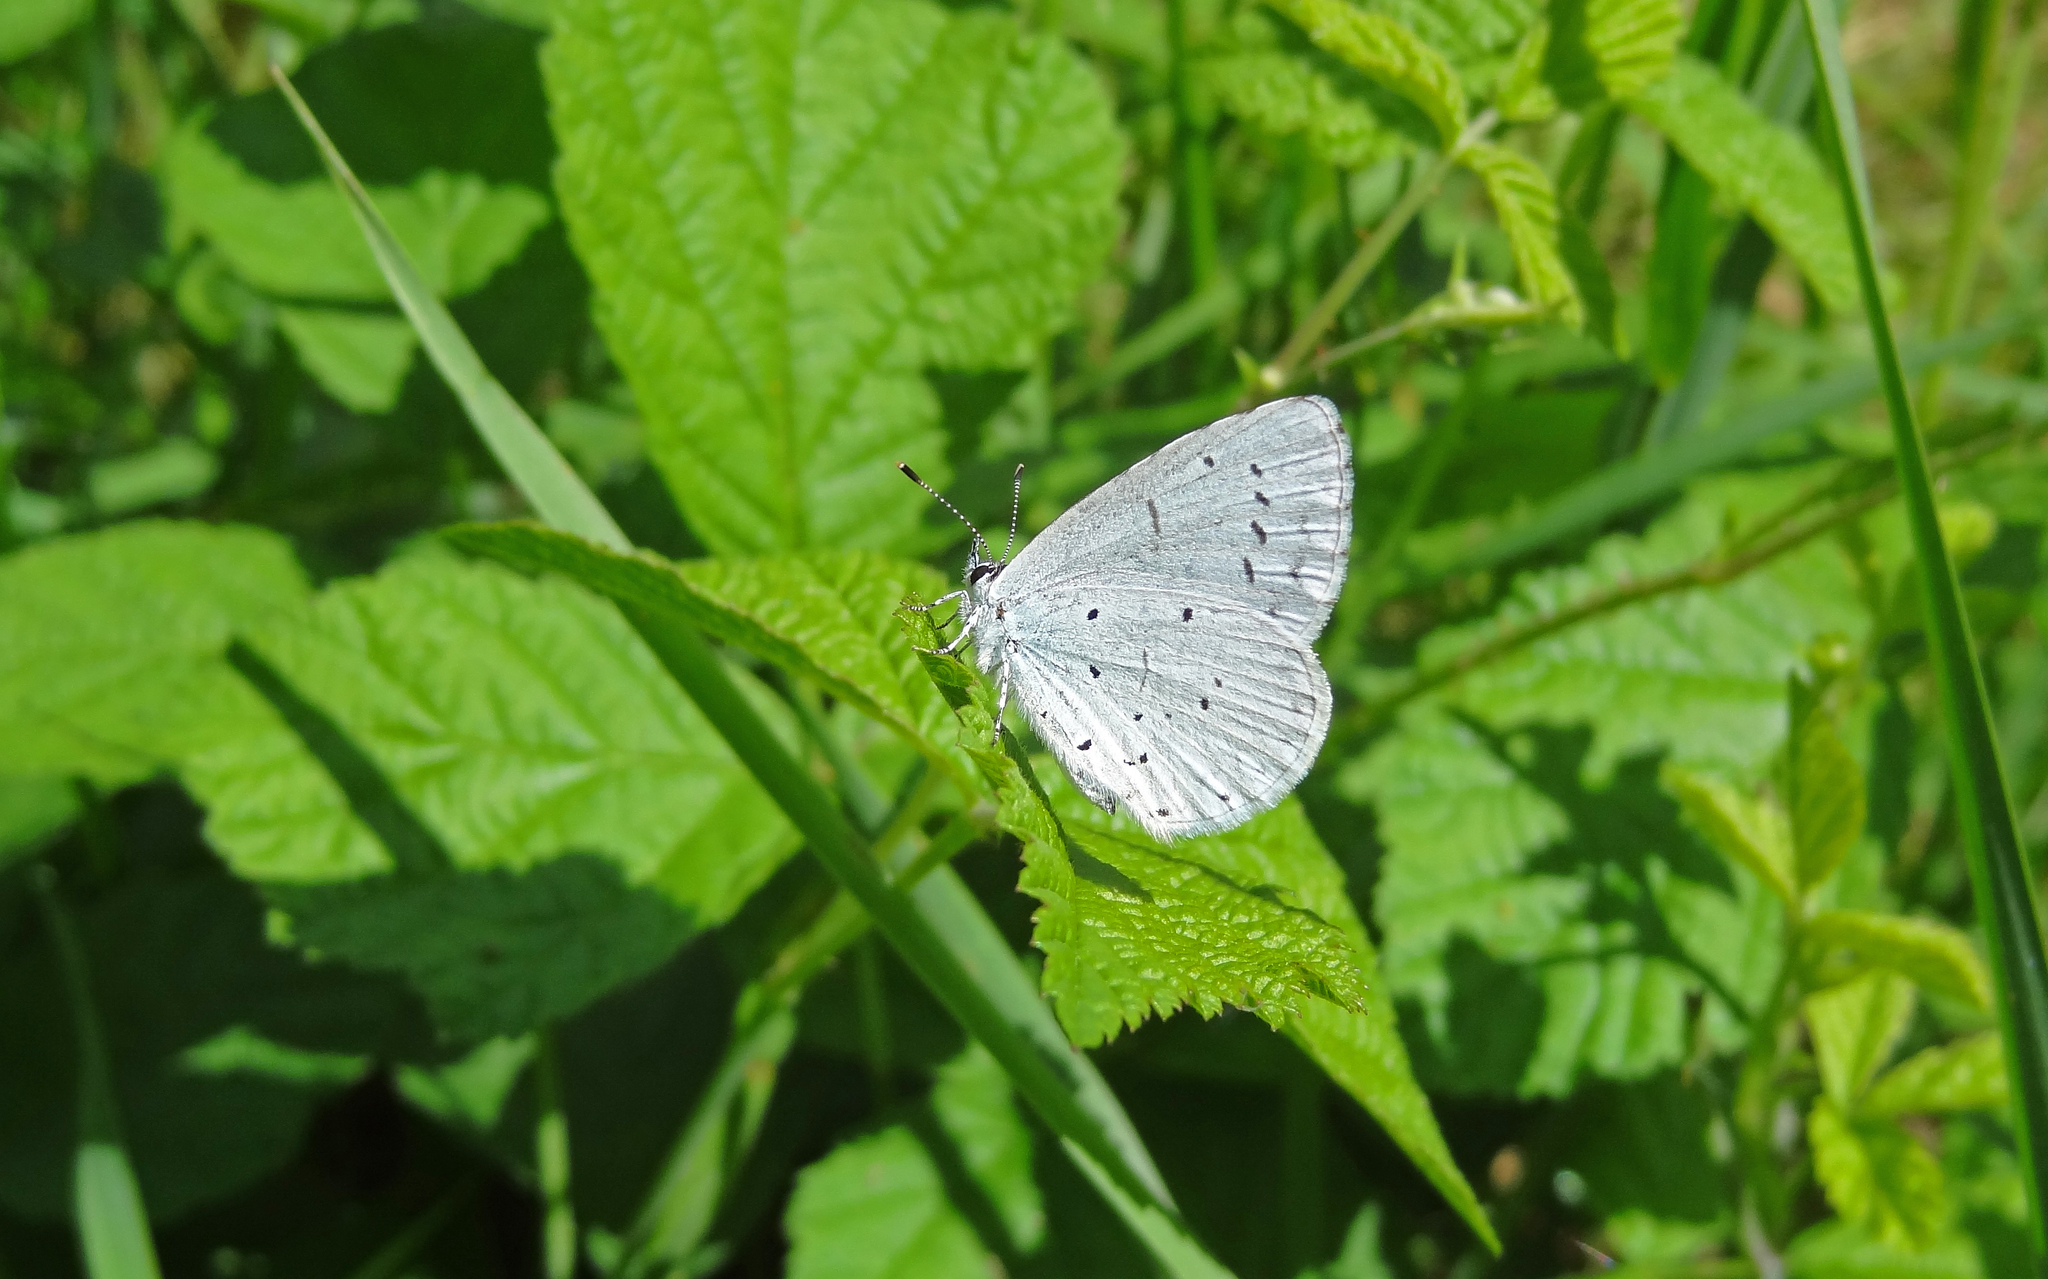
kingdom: Animalia
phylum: Arthropoda
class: Insecta
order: Lepidoptera
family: Lycaenidae
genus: Celastrina
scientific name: Celastrina argiolus
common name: Holly blue
